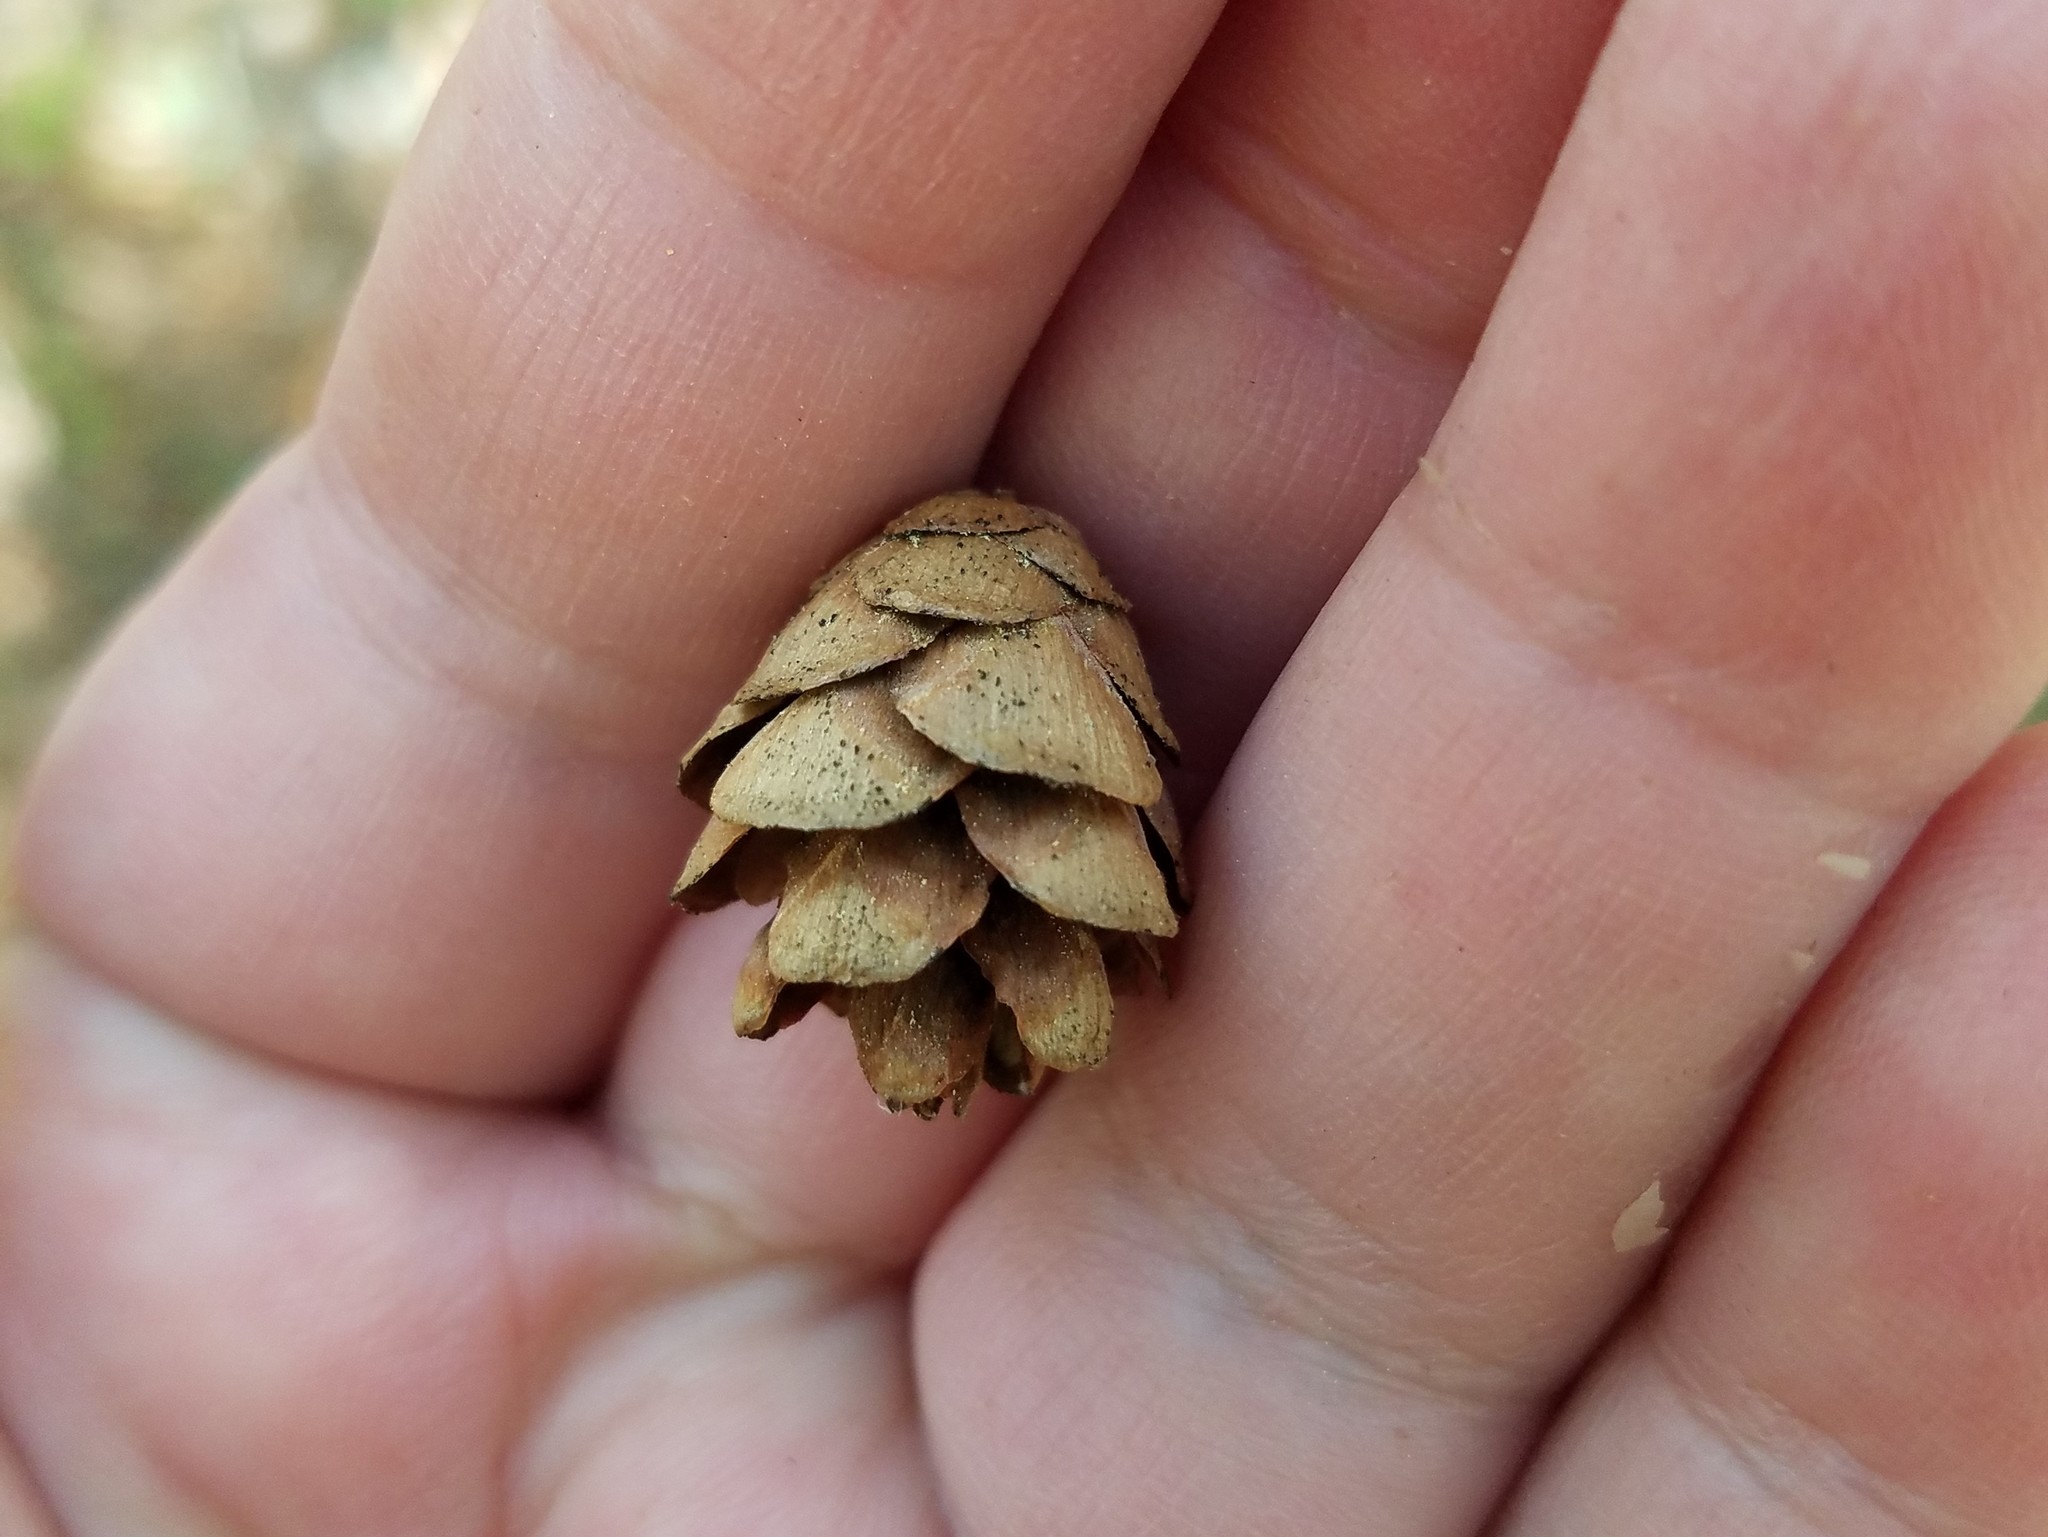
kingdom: Plantae
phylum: Tracheophyta
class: Pinopsida
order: Pinales
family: Pinaceae
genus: Tsuga
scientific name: Tsuga canadensis
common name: Eastern hemlock
